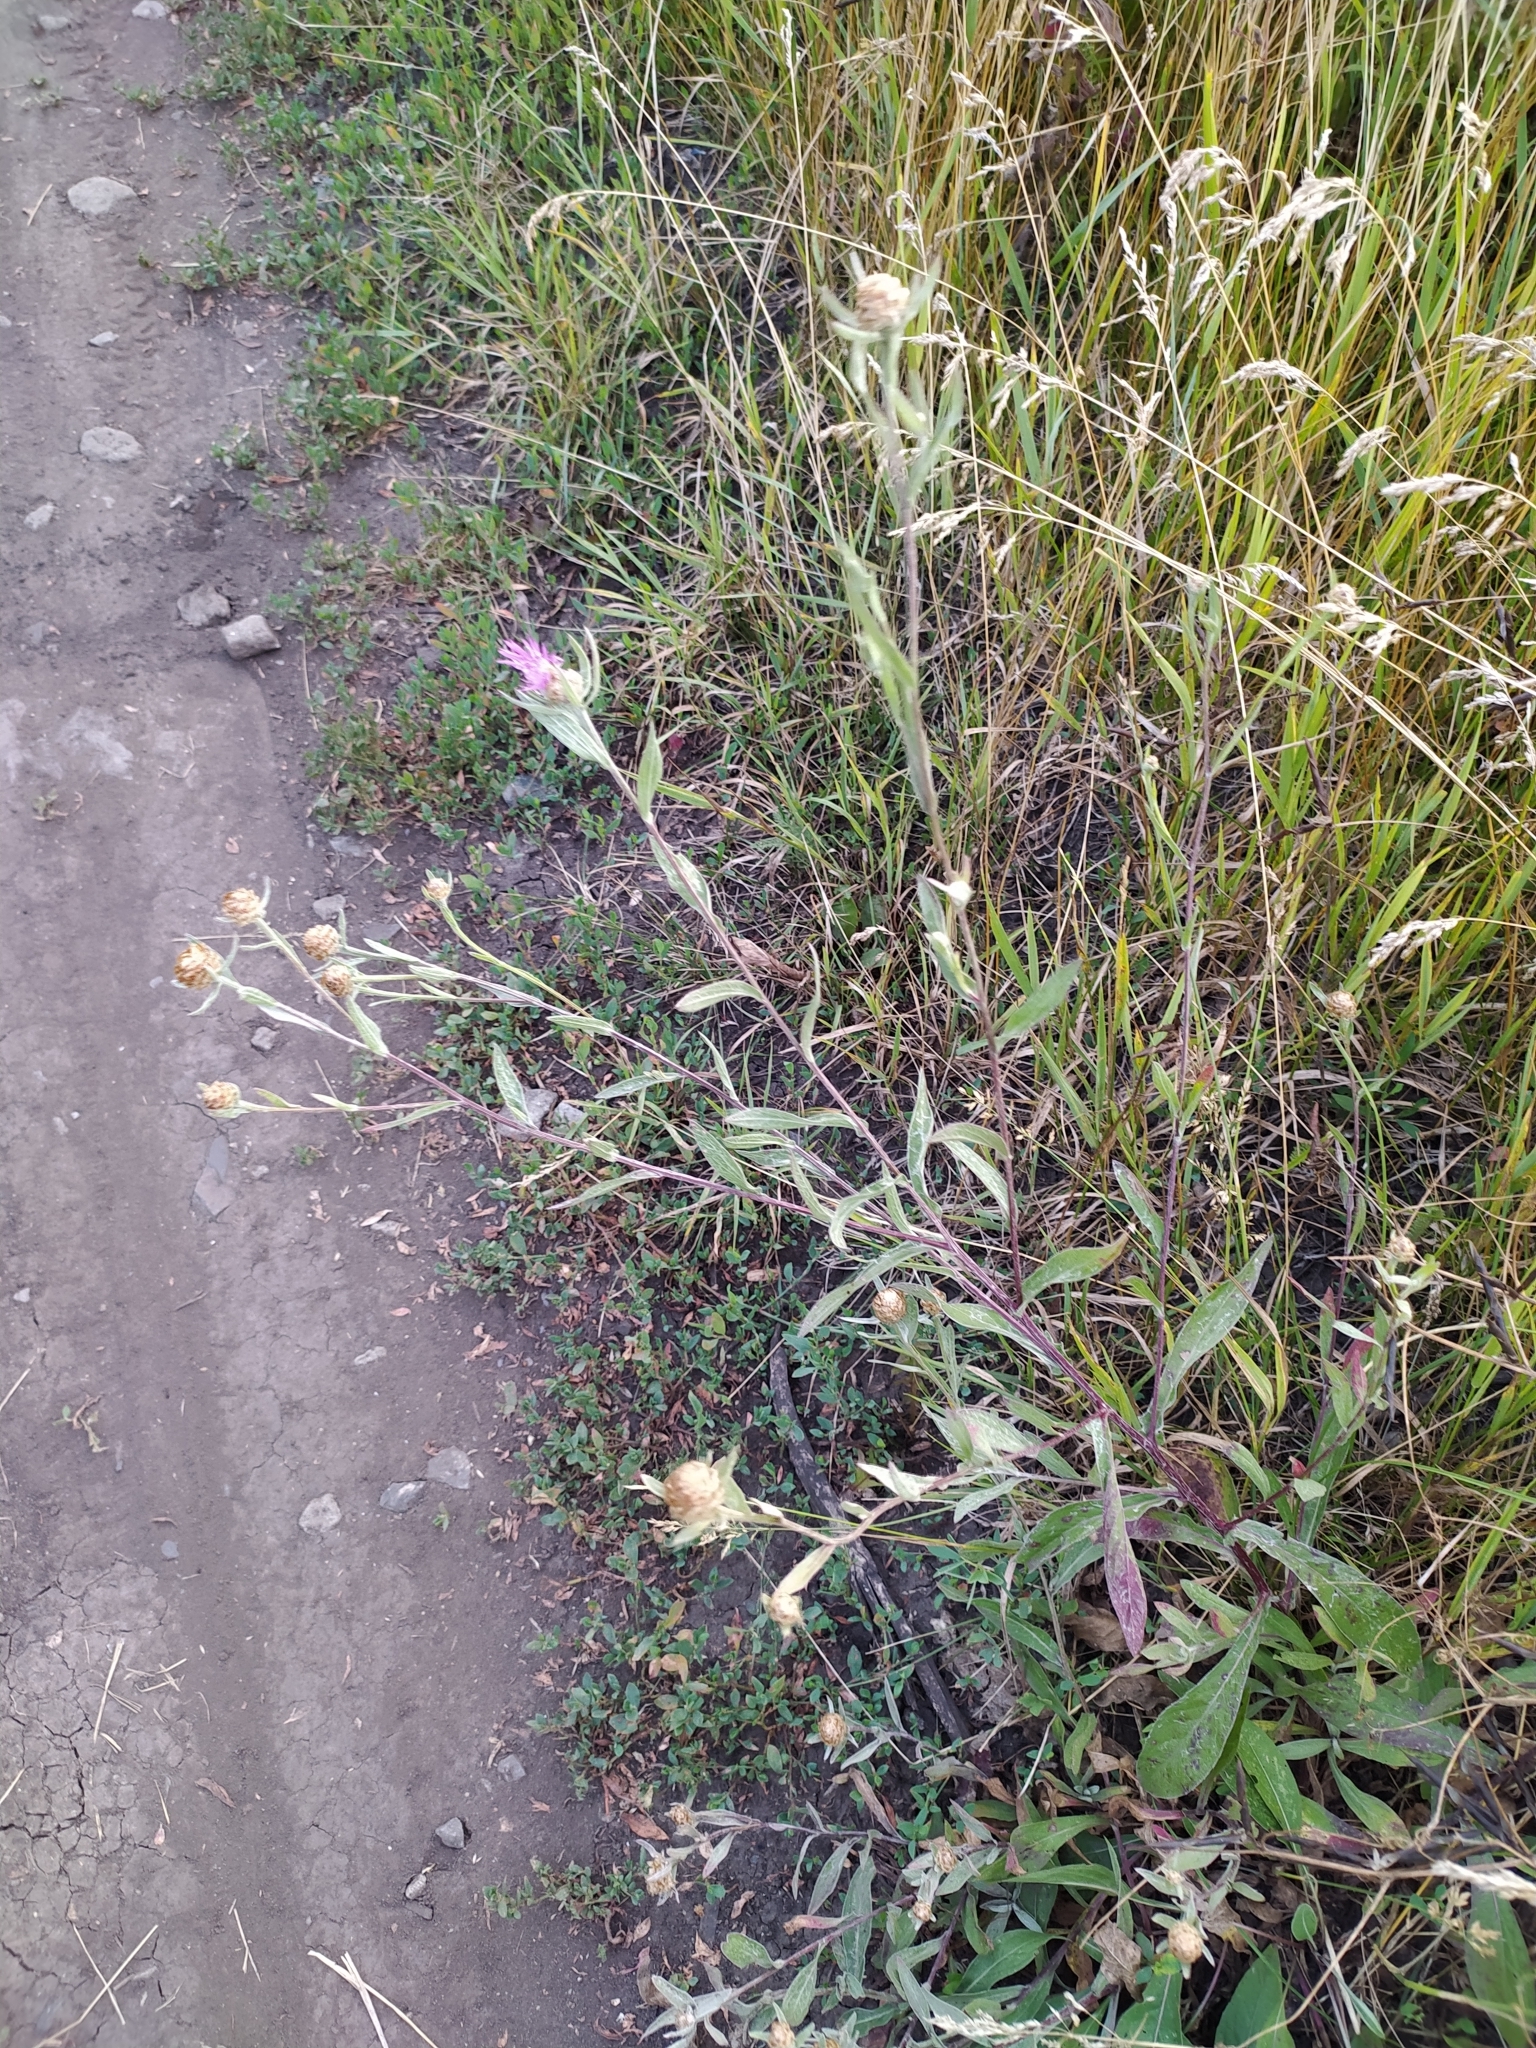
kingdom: Plantae
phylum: Tracheophyta
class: Magnoliopsida
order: Asterales
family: Asteraceae
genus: Centaurea
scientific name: Centaurea jacea
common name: Brown knapweed
